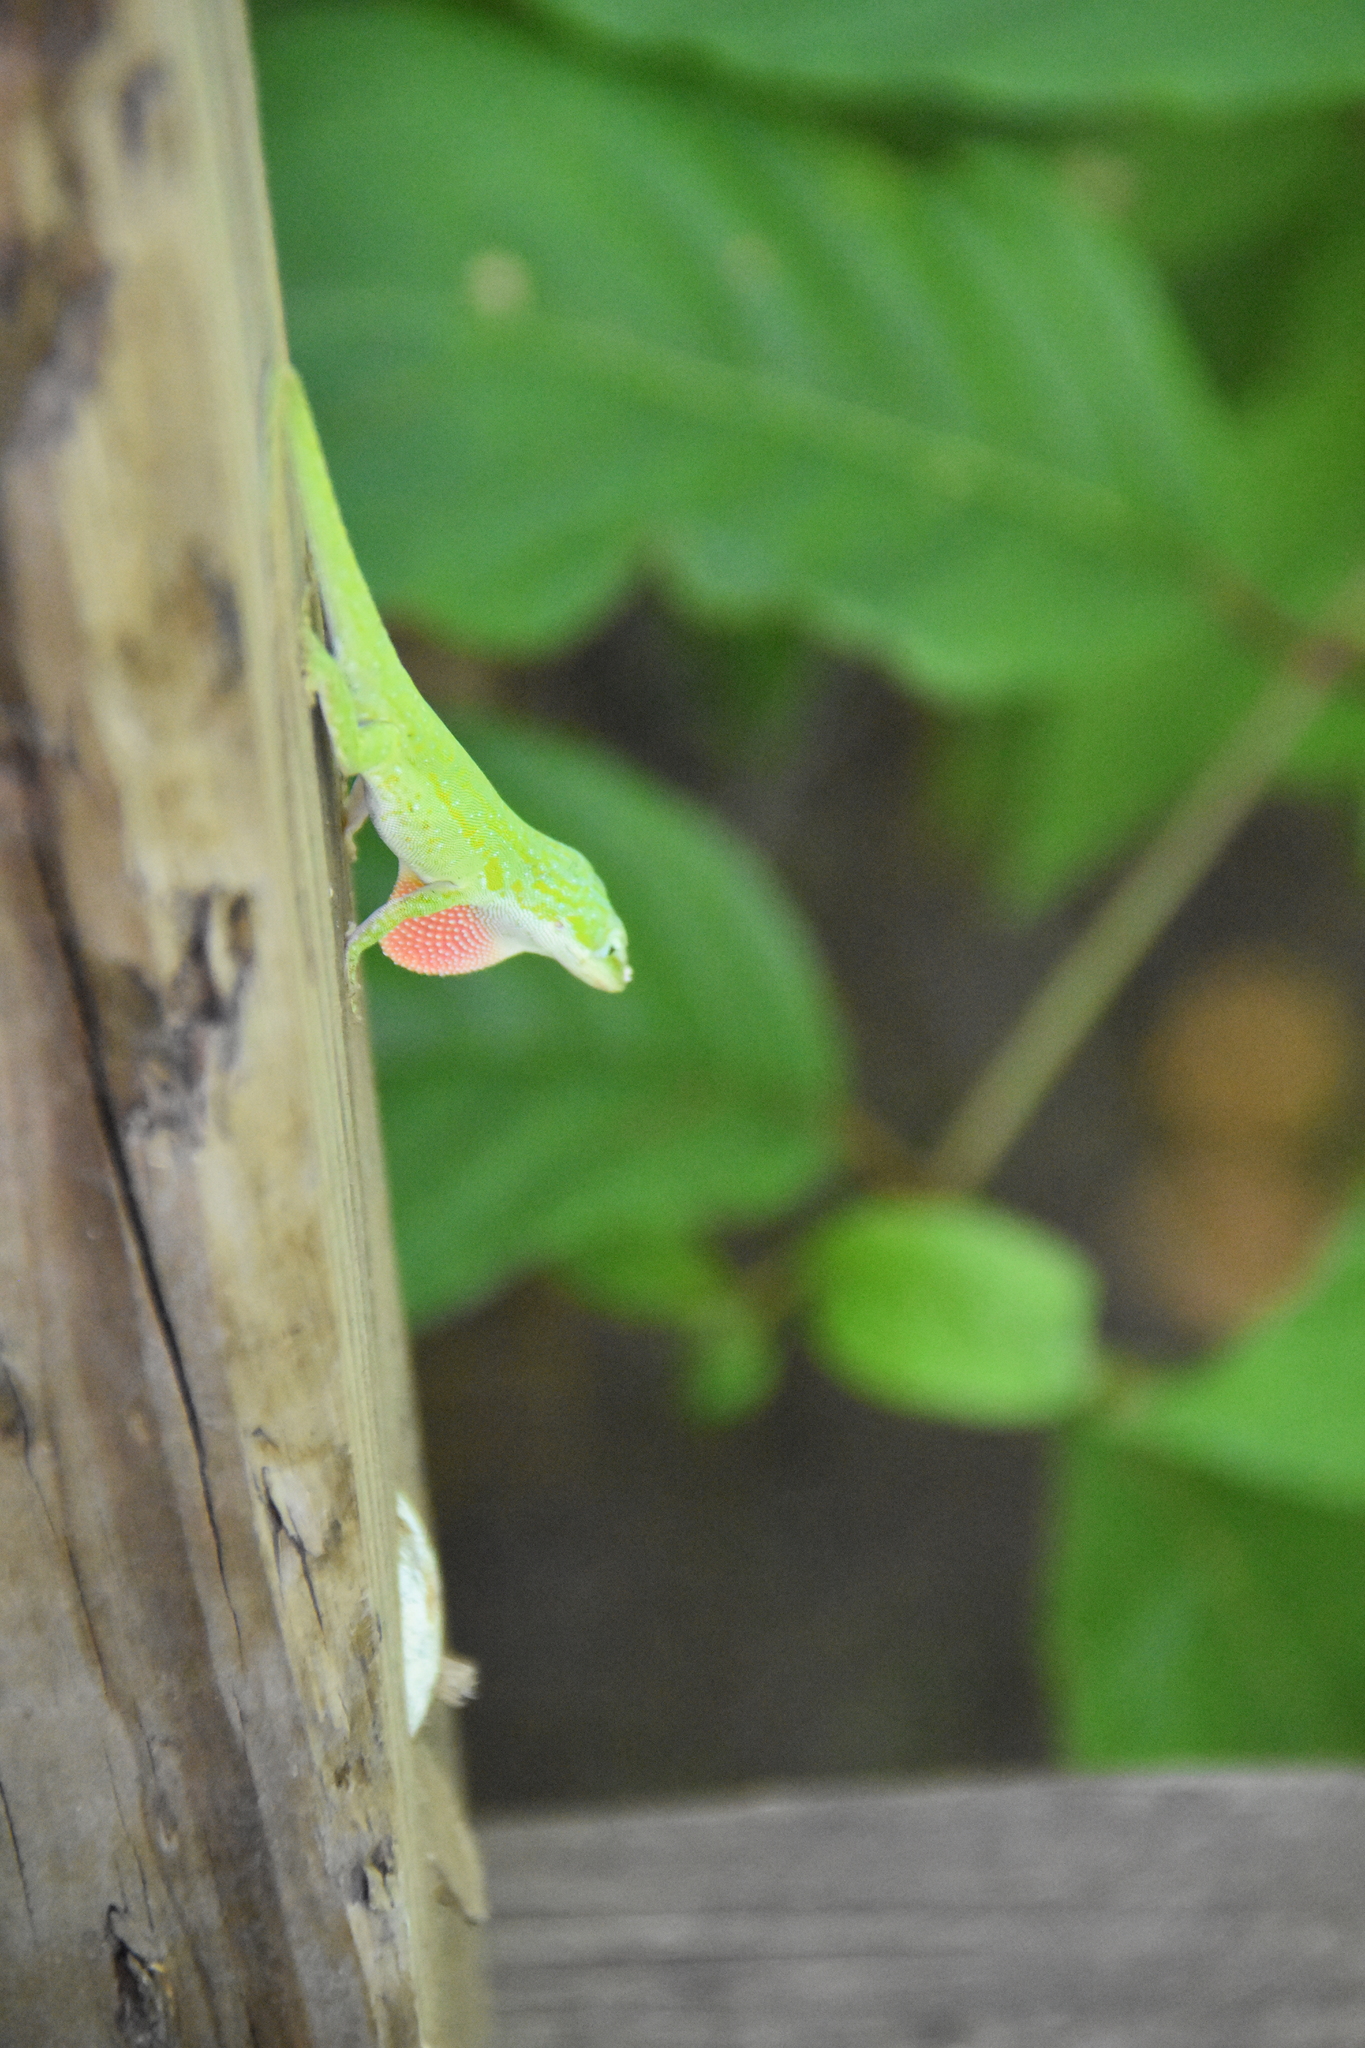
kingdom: Animalia
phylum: Chordata
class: Squamata
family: Dactyloidae
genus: Anolis
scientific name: Anolis carolinensis
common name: Green anole
